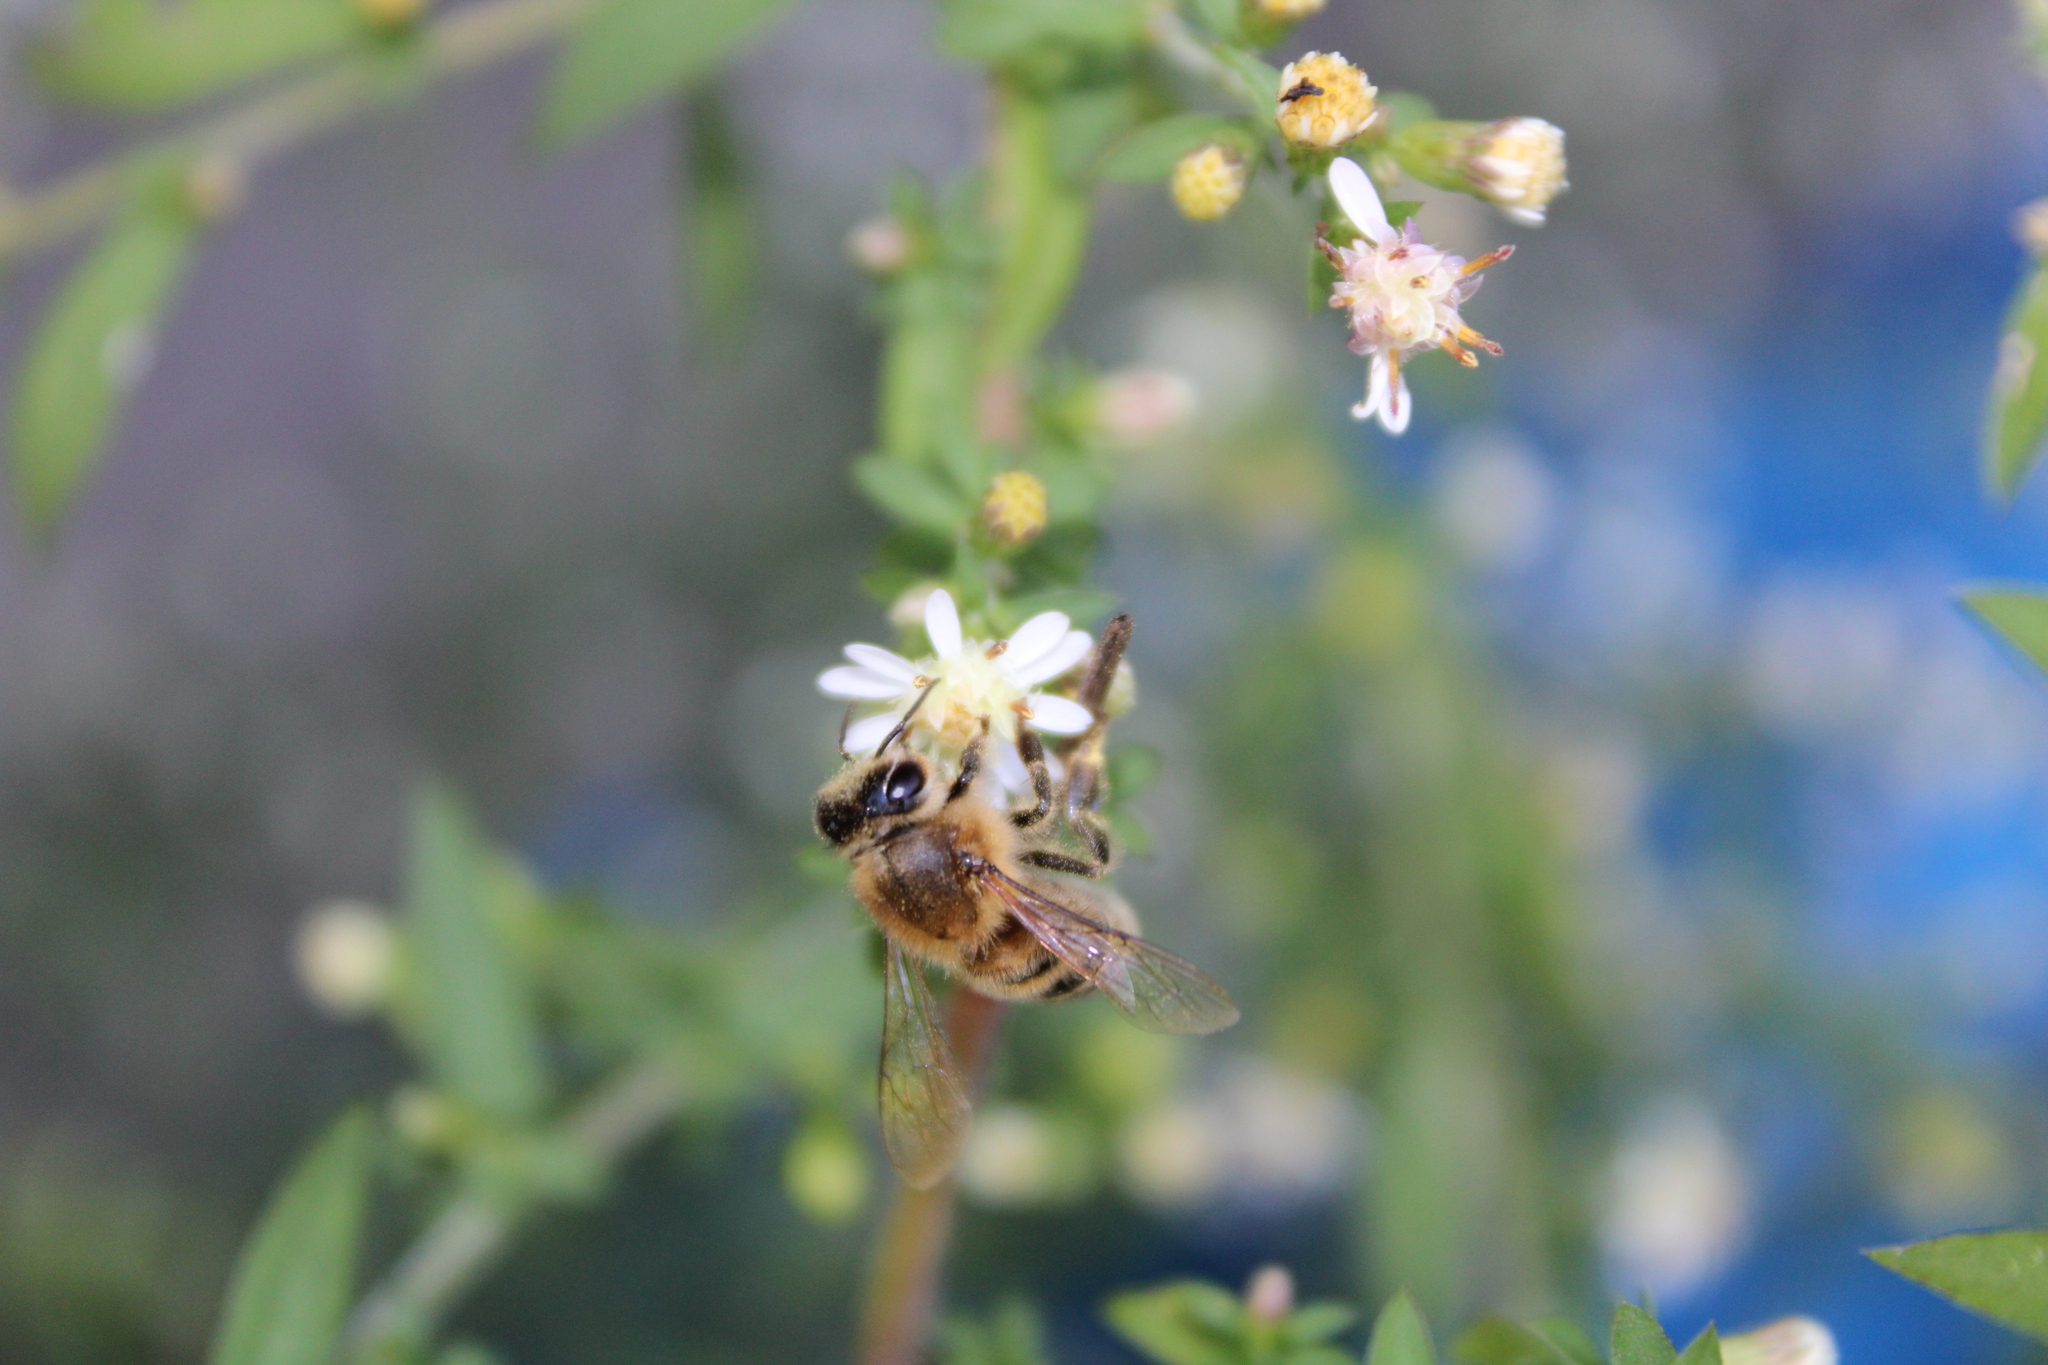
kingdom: Animalia
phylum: Arthropoda
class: Insecta
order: Hymenoptera
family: Apidae
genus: Apis
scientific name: Apis mellifera
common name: Honey bee
